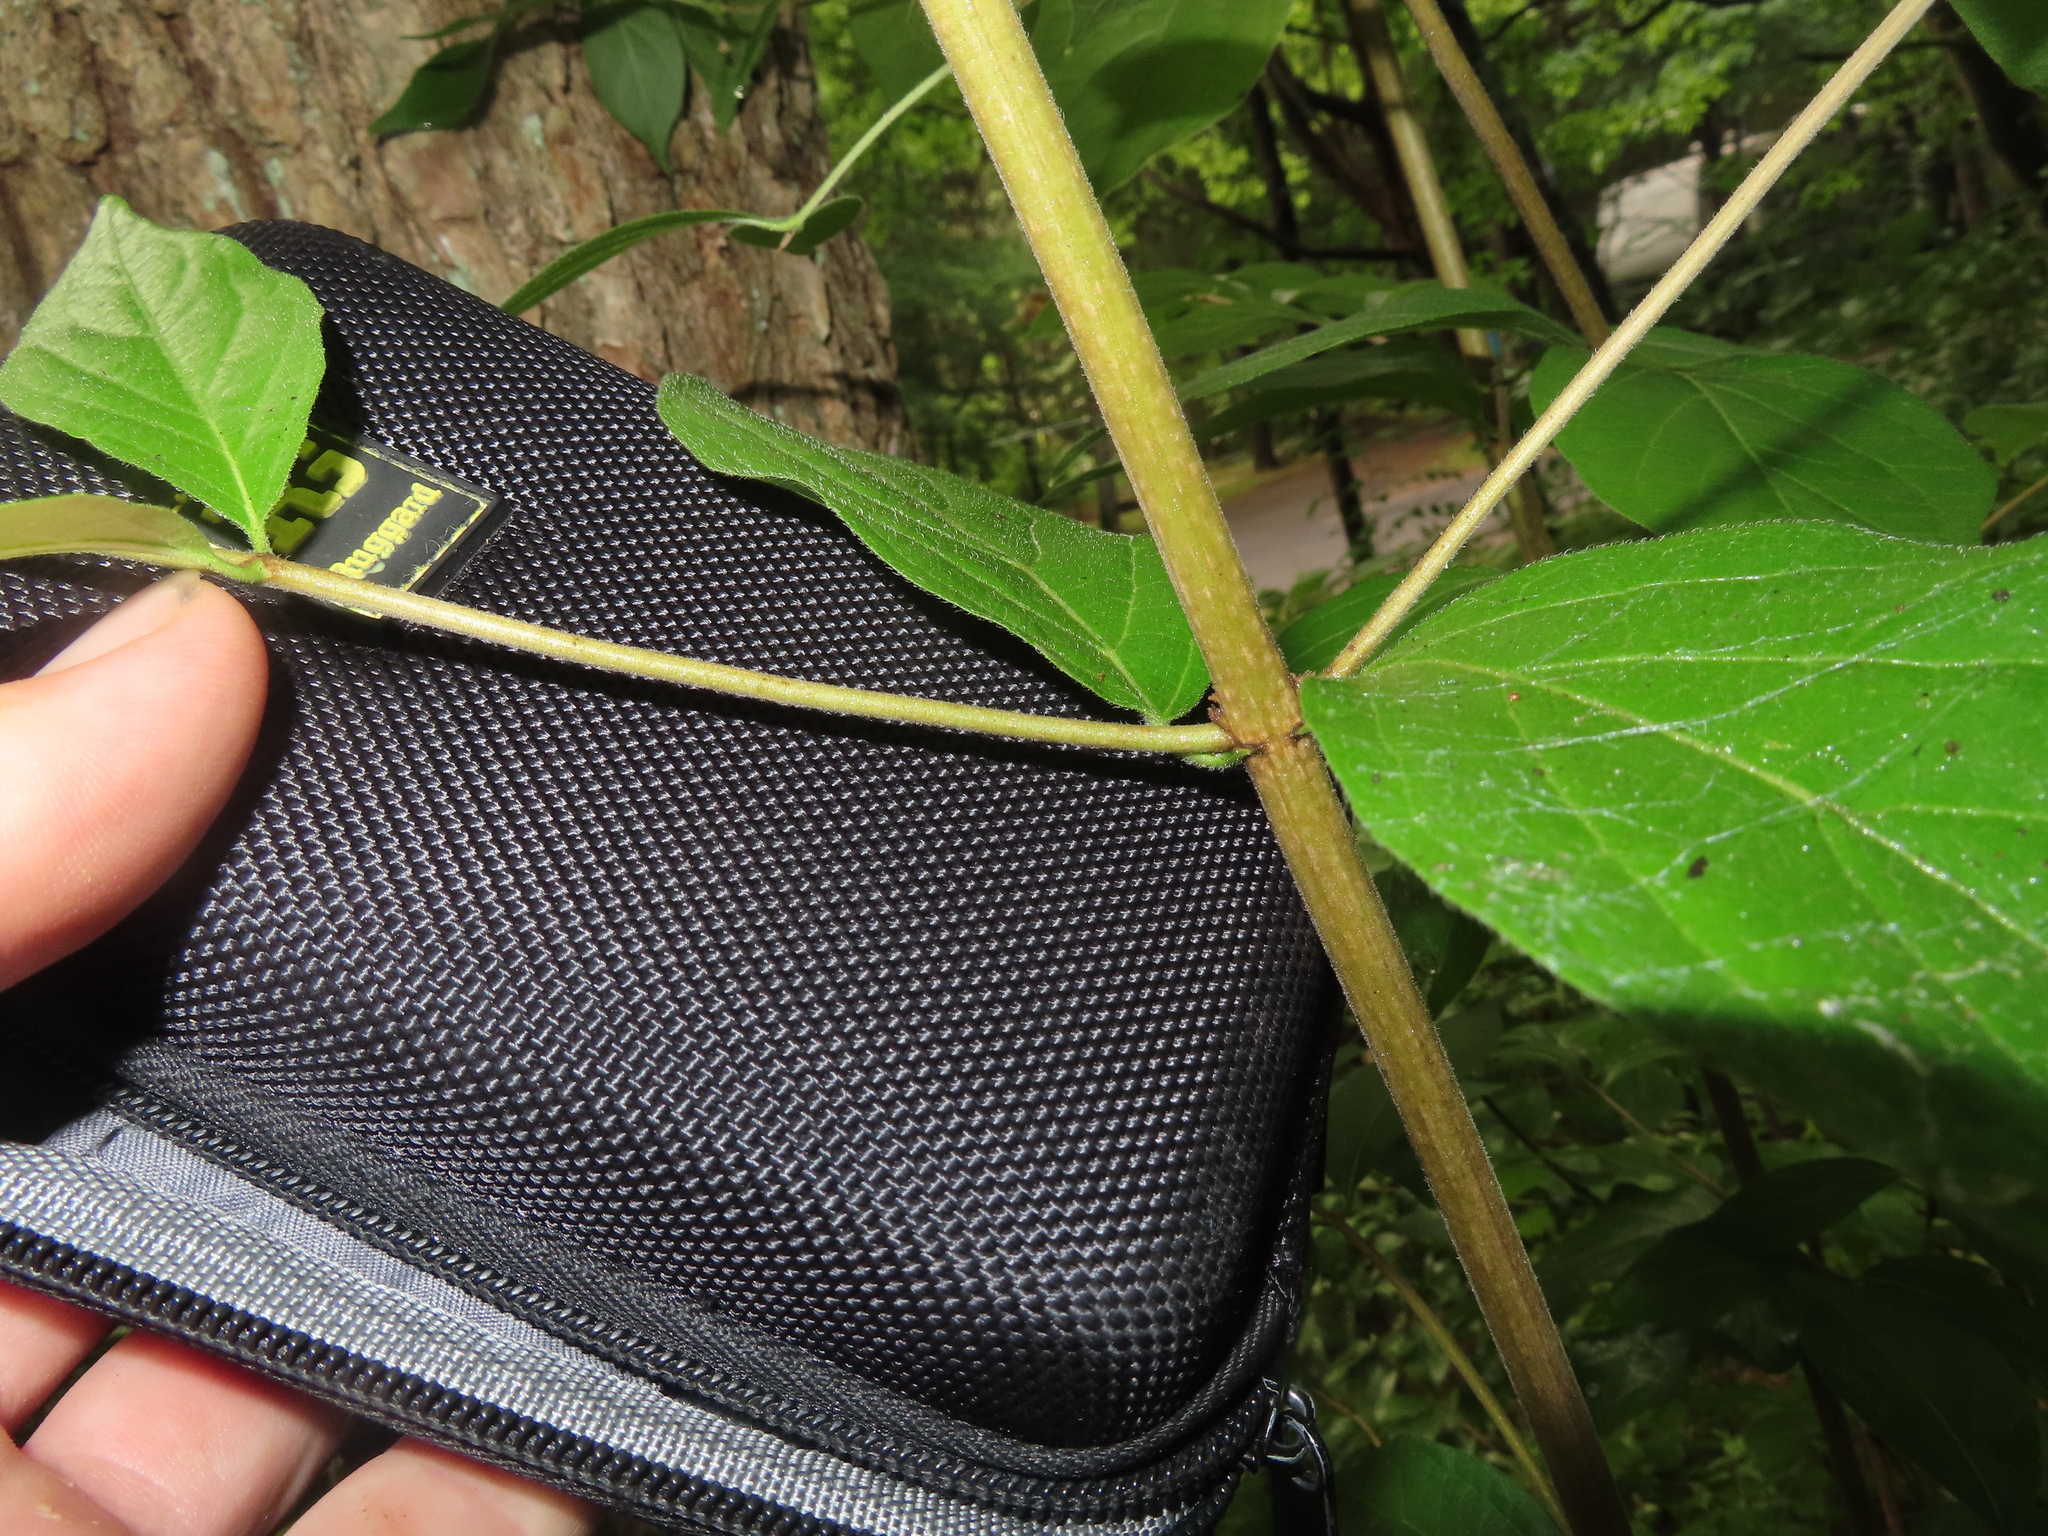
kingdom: Plantae
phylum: Tracheophyta
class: Magnoliopsida
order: Dipsacales
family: Caprifoliaceae
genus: Lonicera
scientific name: Lonicera maackii
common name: Amur honeysuckle
